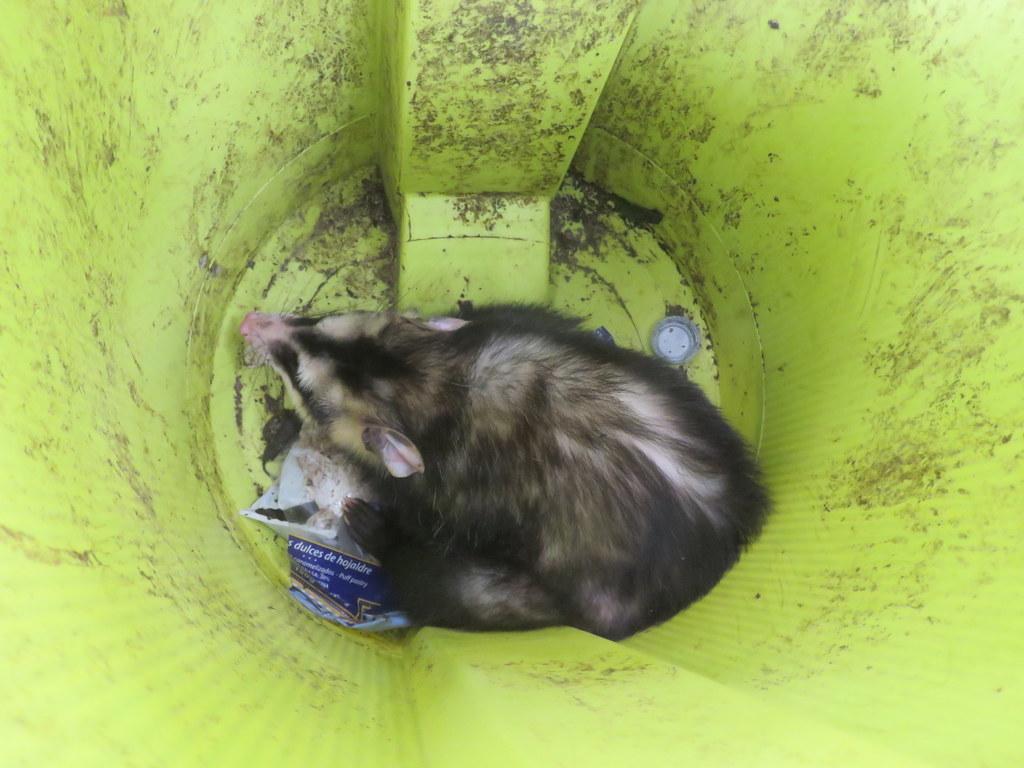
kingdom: Animalia
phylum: Chordata
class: Mammalia
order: Didelphimorphia
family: Didelphidae
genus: Didelphis
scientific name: Didelphis albiventris
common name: White-eared opossum
